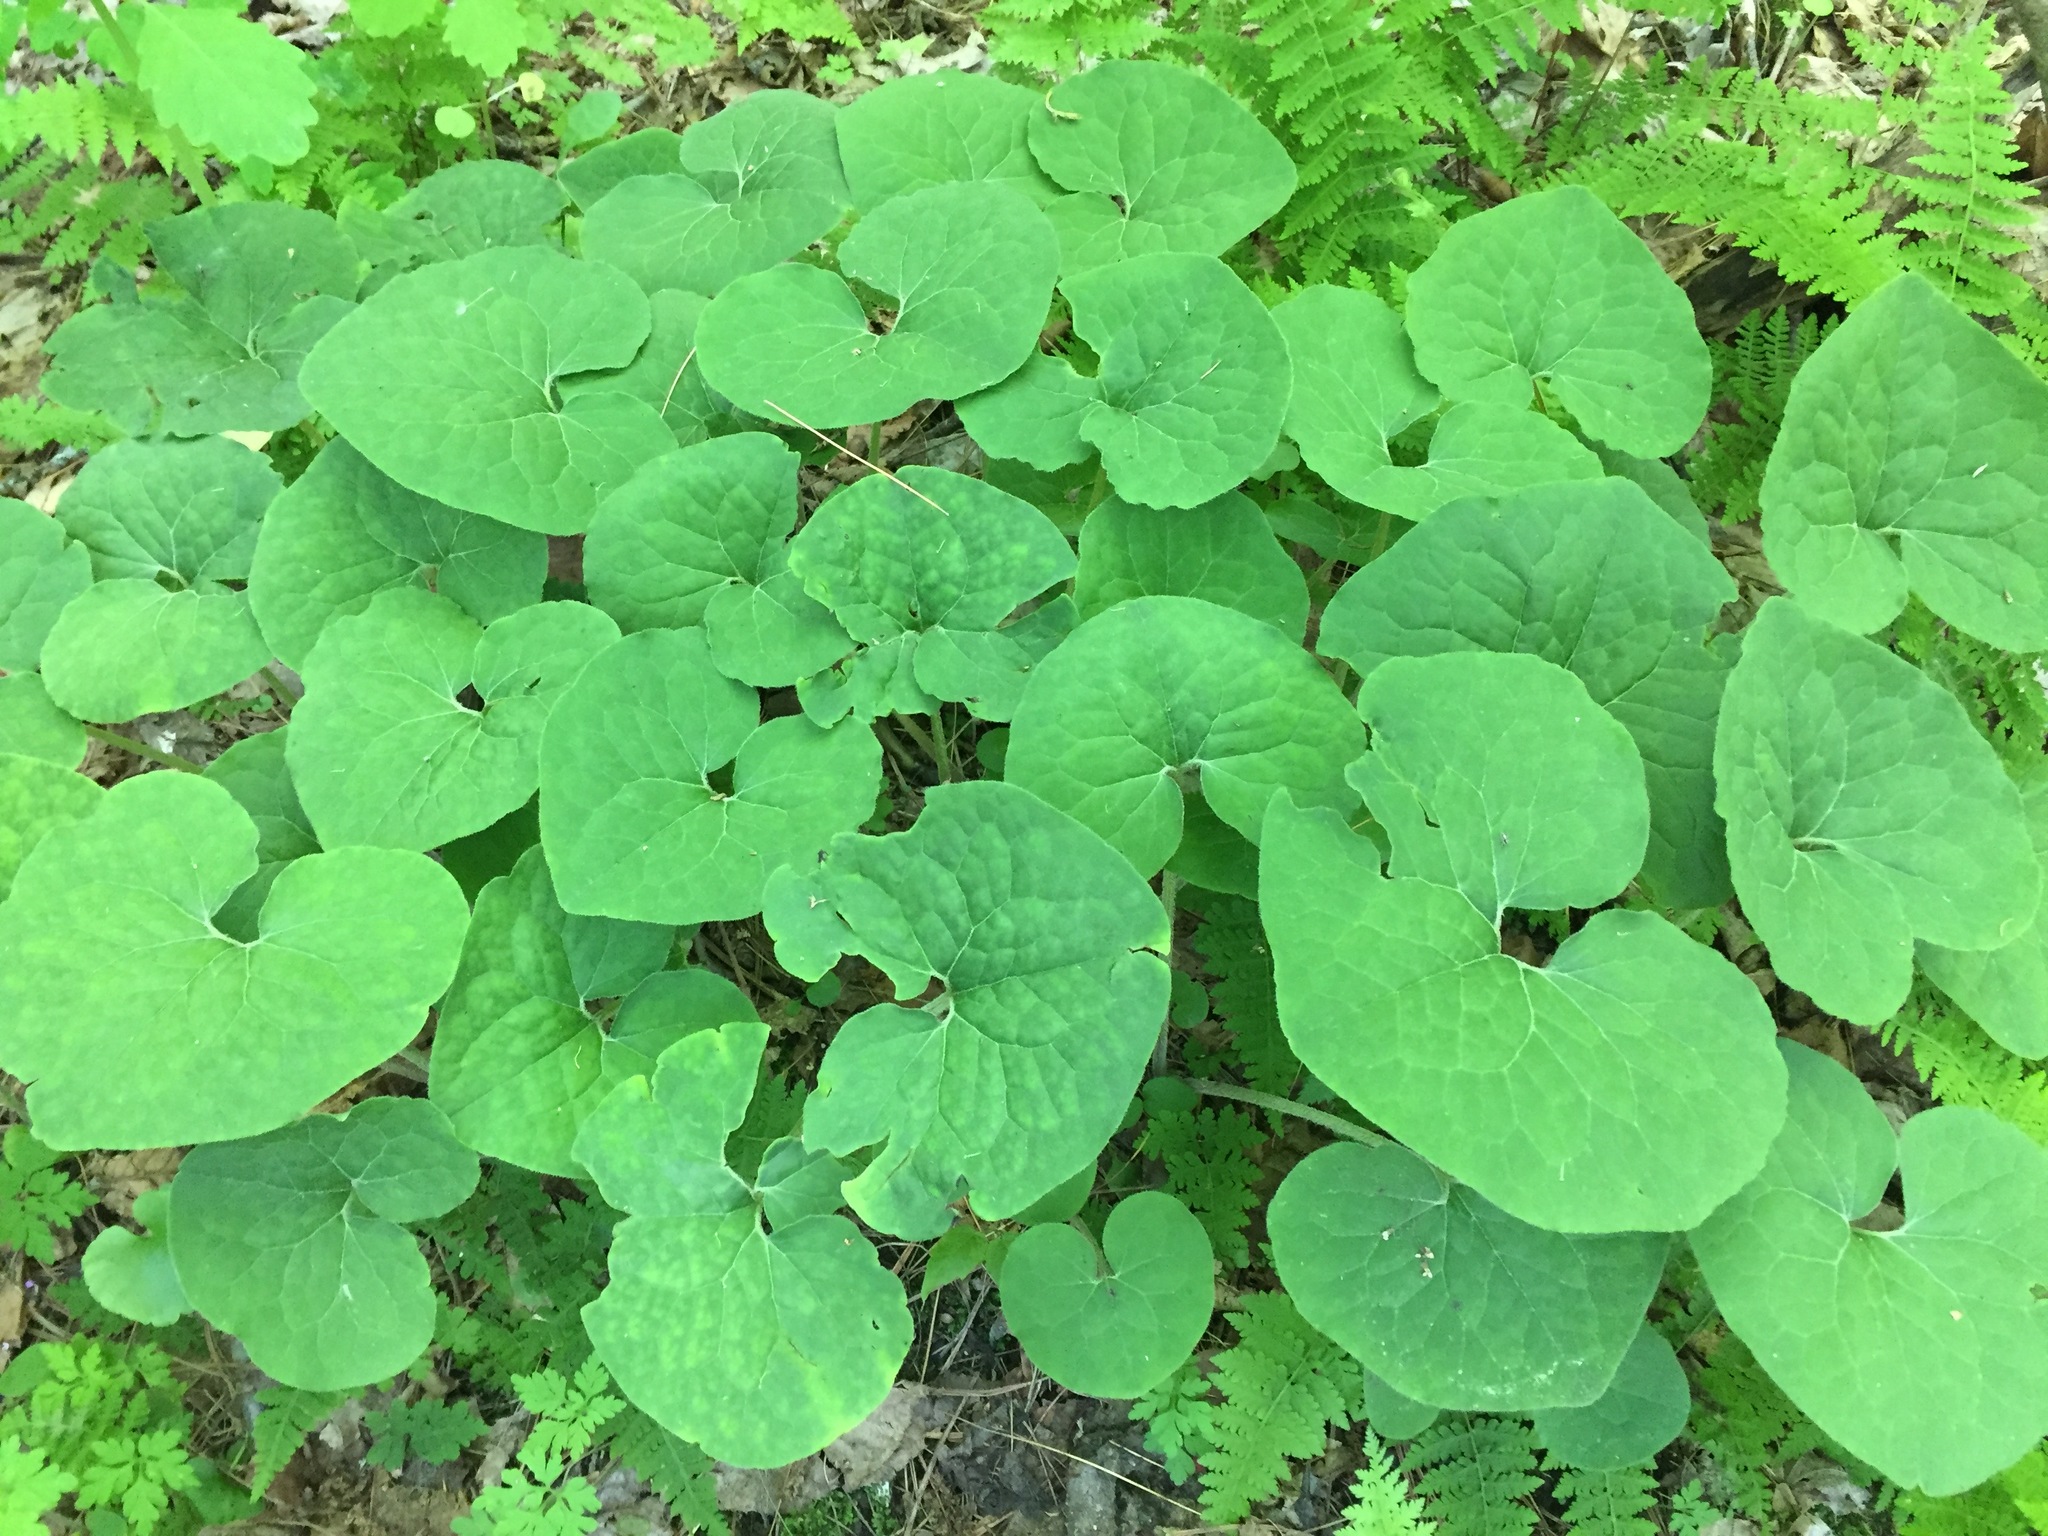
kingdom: Plantae
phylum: Tracheophyta
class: Magnoliopsida
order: Piperales
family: Aristolochiaceae
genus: Asarum
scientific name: Asarum canadense
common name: Wild ginger
